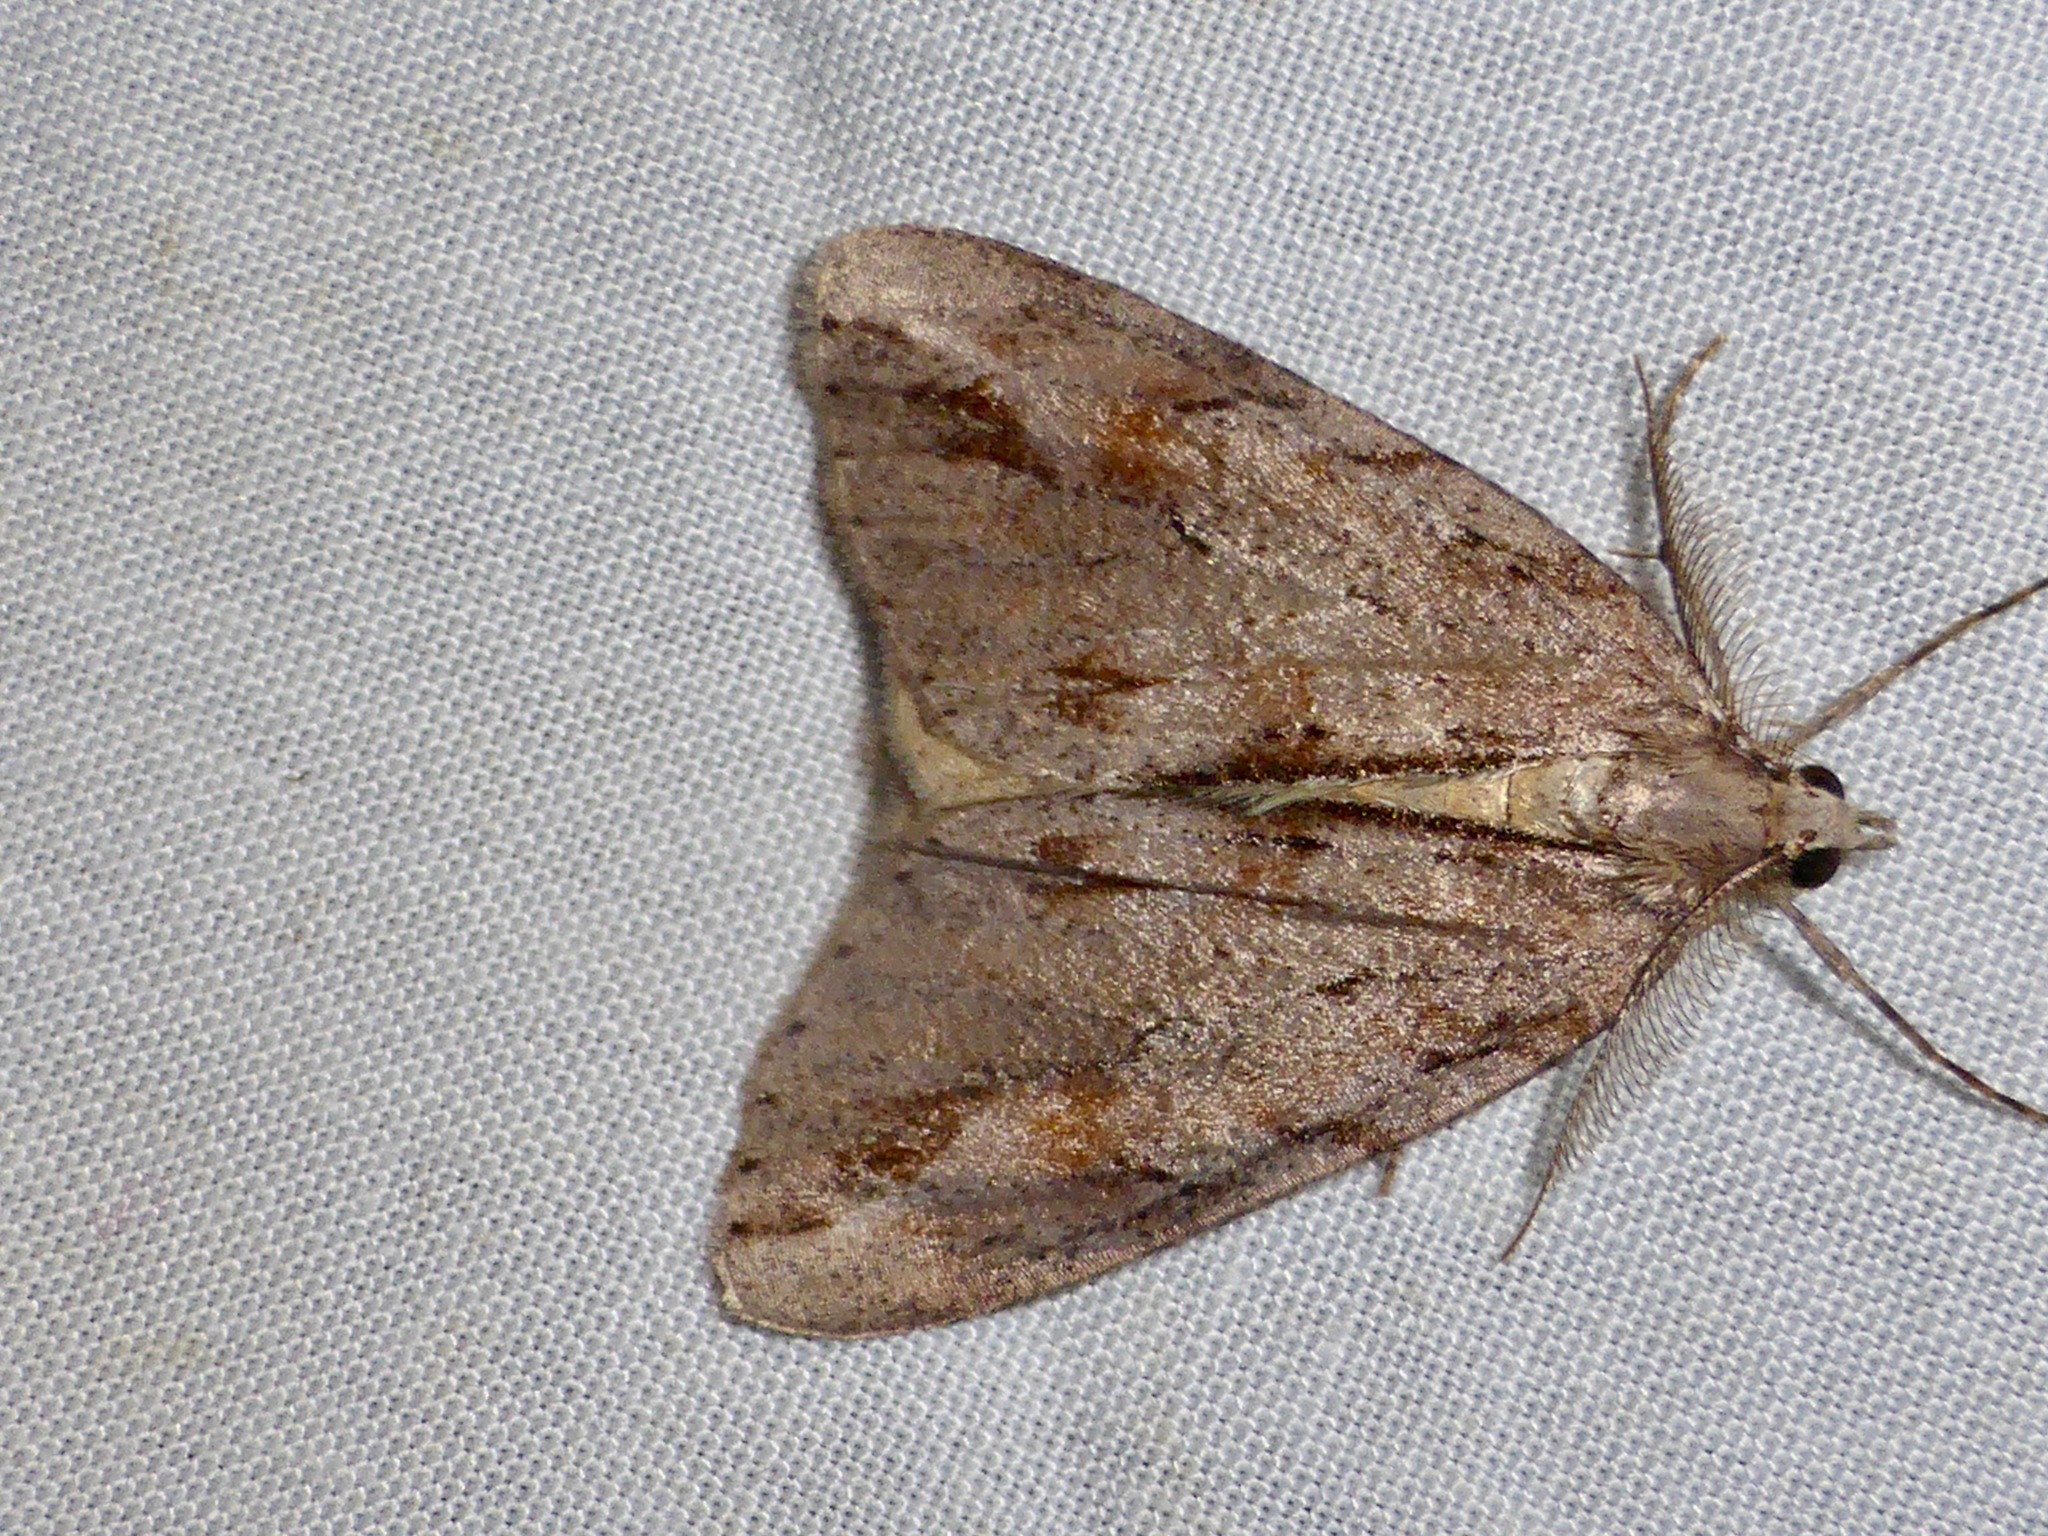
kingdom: Animalia
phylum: Arthropoda
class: Insecta
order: Lepidoptera
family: Geometridae
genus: Pseudocoremia
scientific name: Pseudocoremia lupinata
